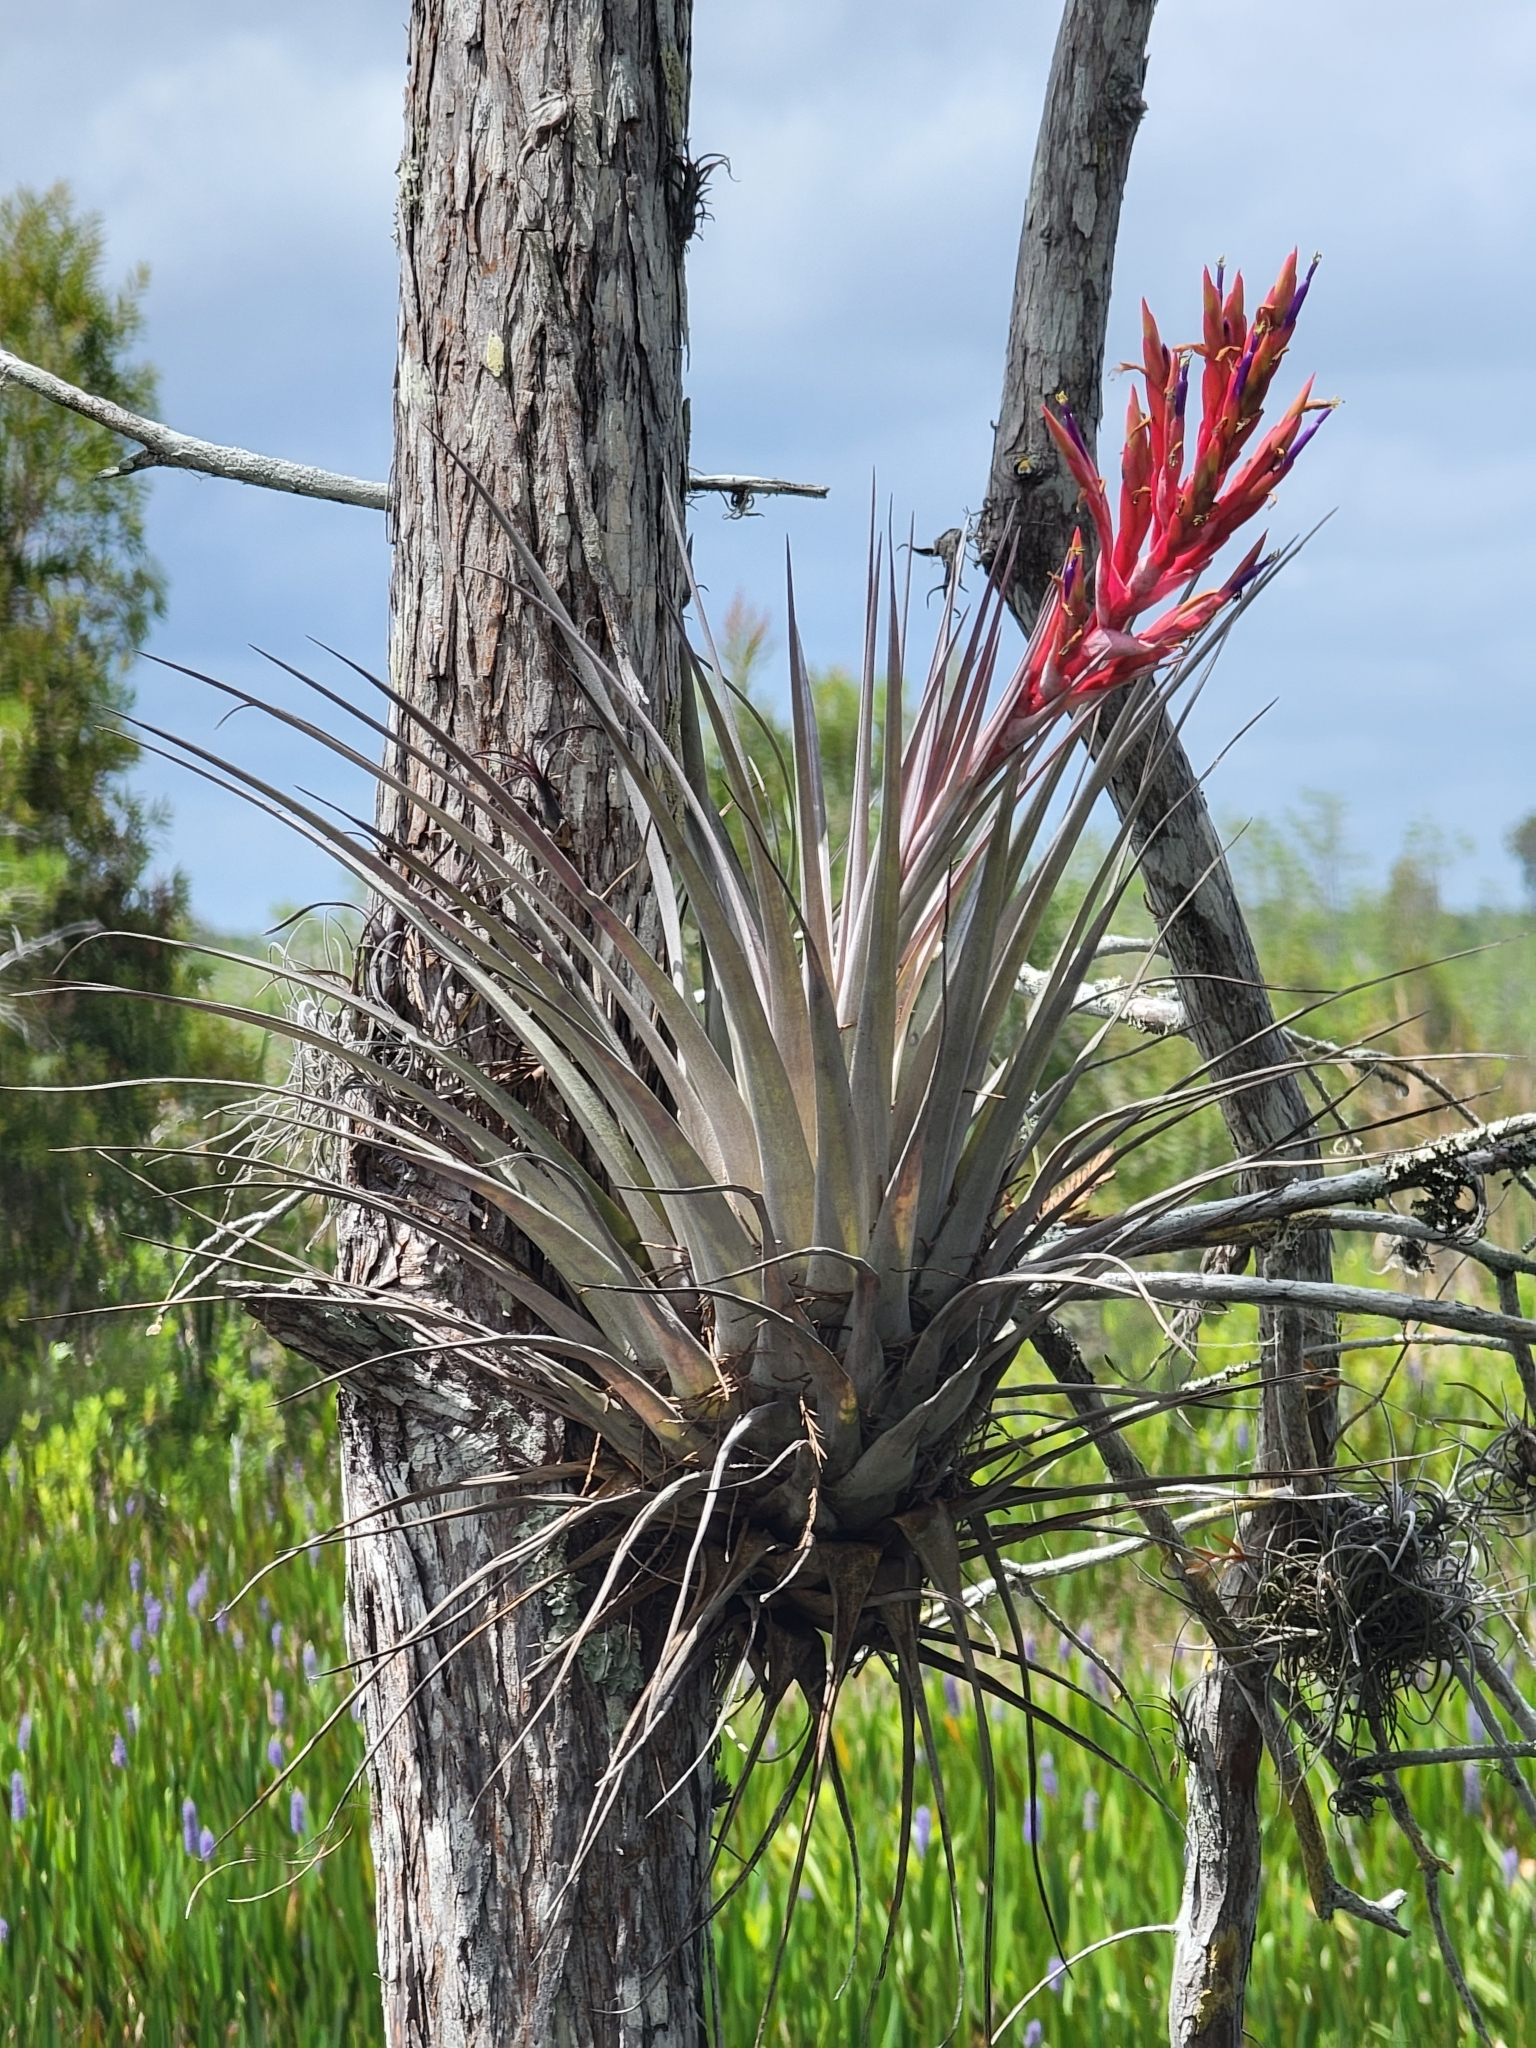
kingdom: Plantae
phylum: Tracheophyta
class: Liliopsida
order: Poales
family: Bromeliaceae
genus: Tillandsia
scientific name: Tillandsia fasciculata
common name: Giant airplant
